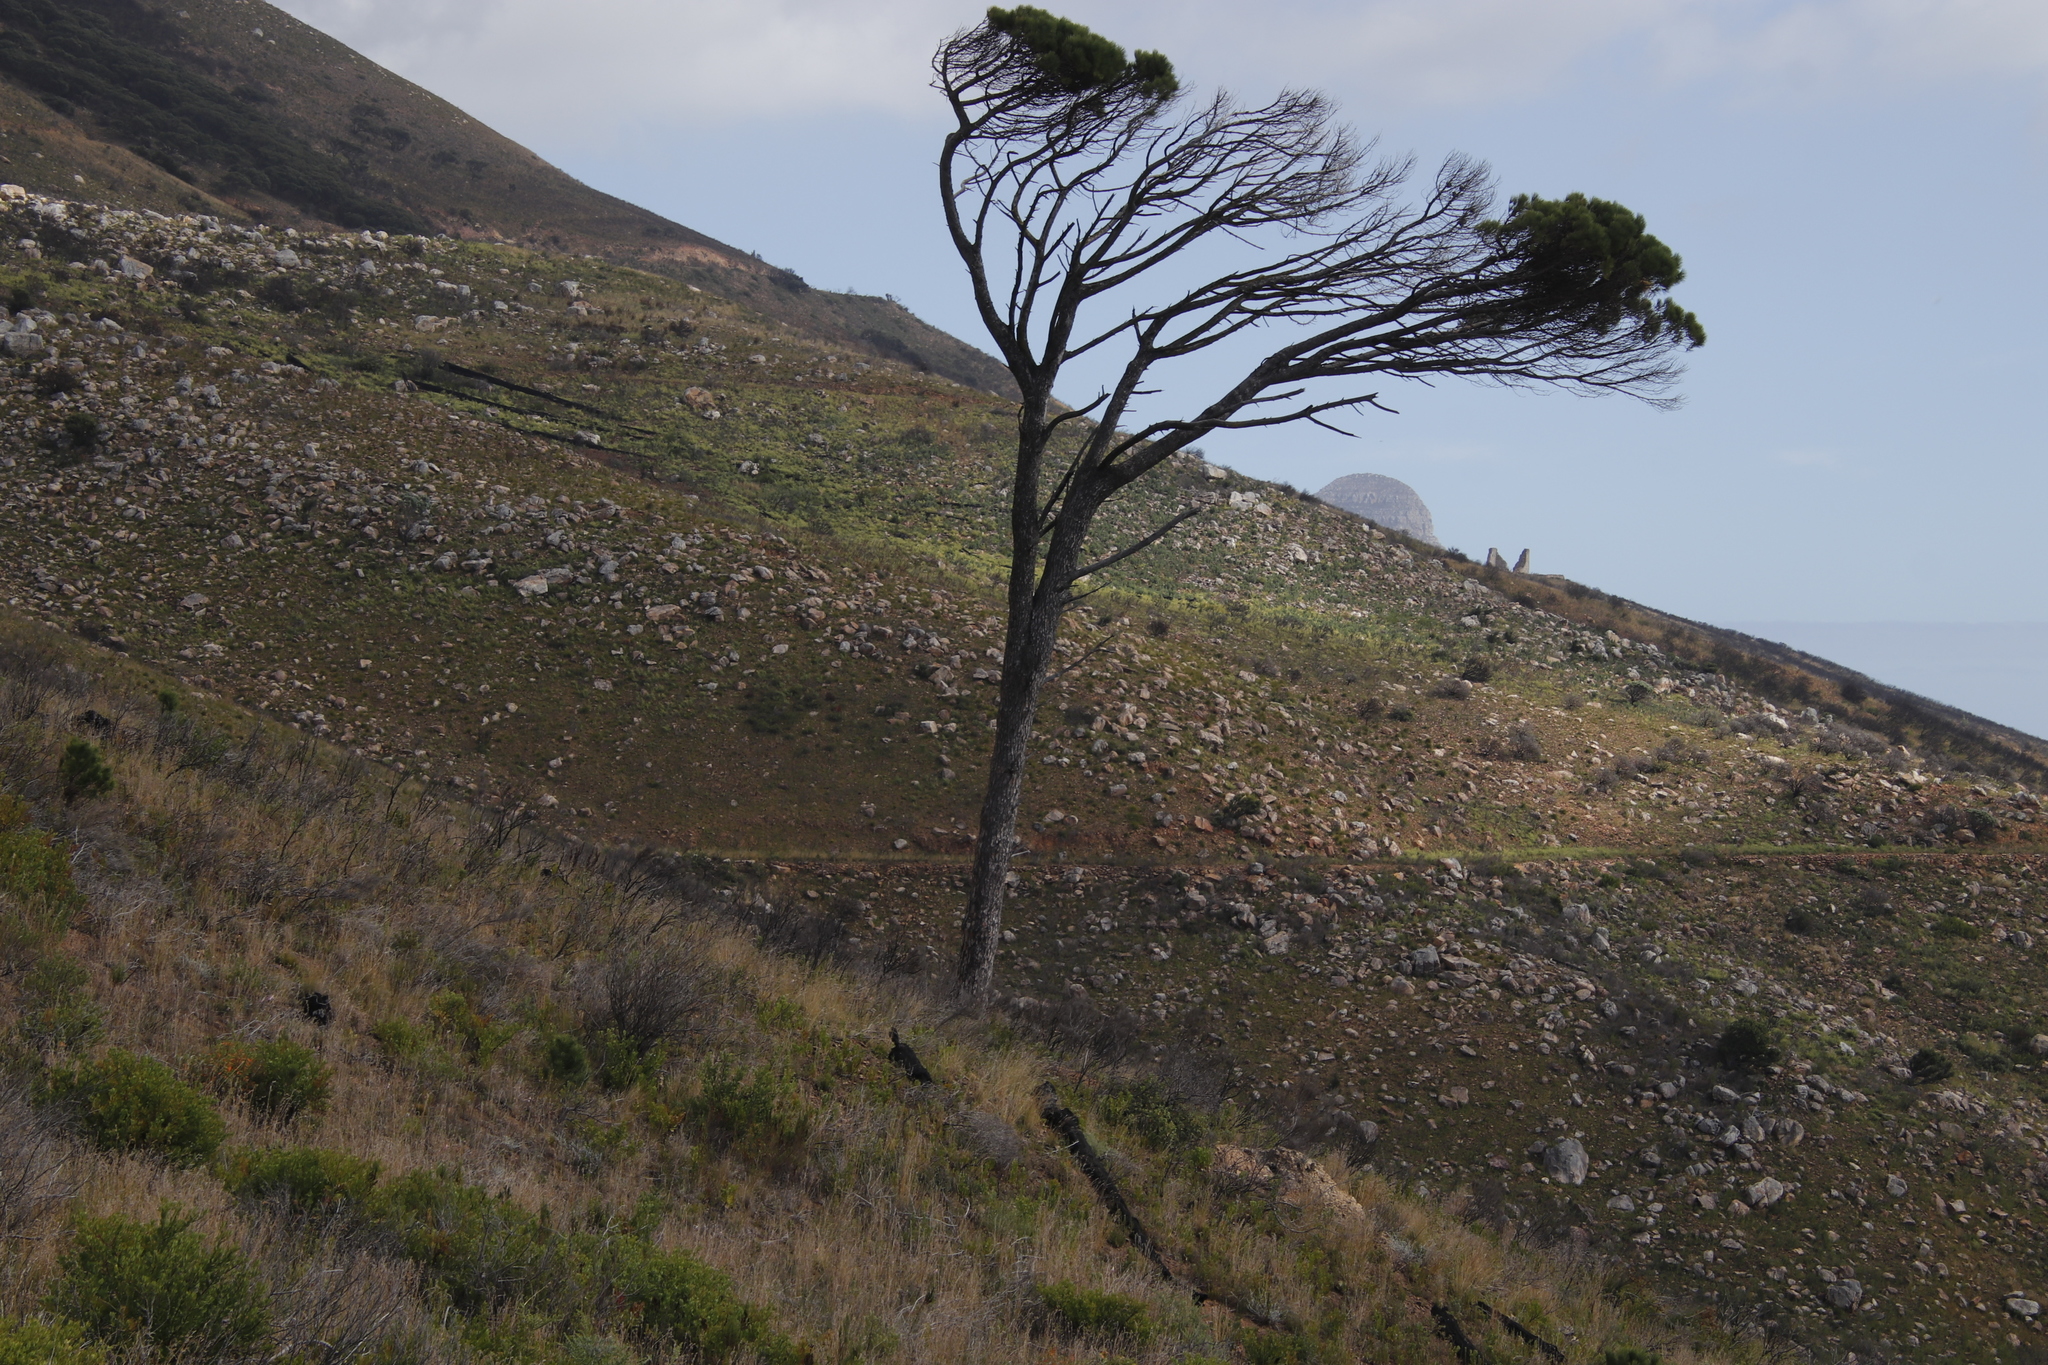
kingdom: Plantae
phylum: Tracheophyta
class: Pinopsida
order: Pinales
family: Pinaceae
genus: Pinus
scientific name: Pinus pinea
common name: Italian stone pine
